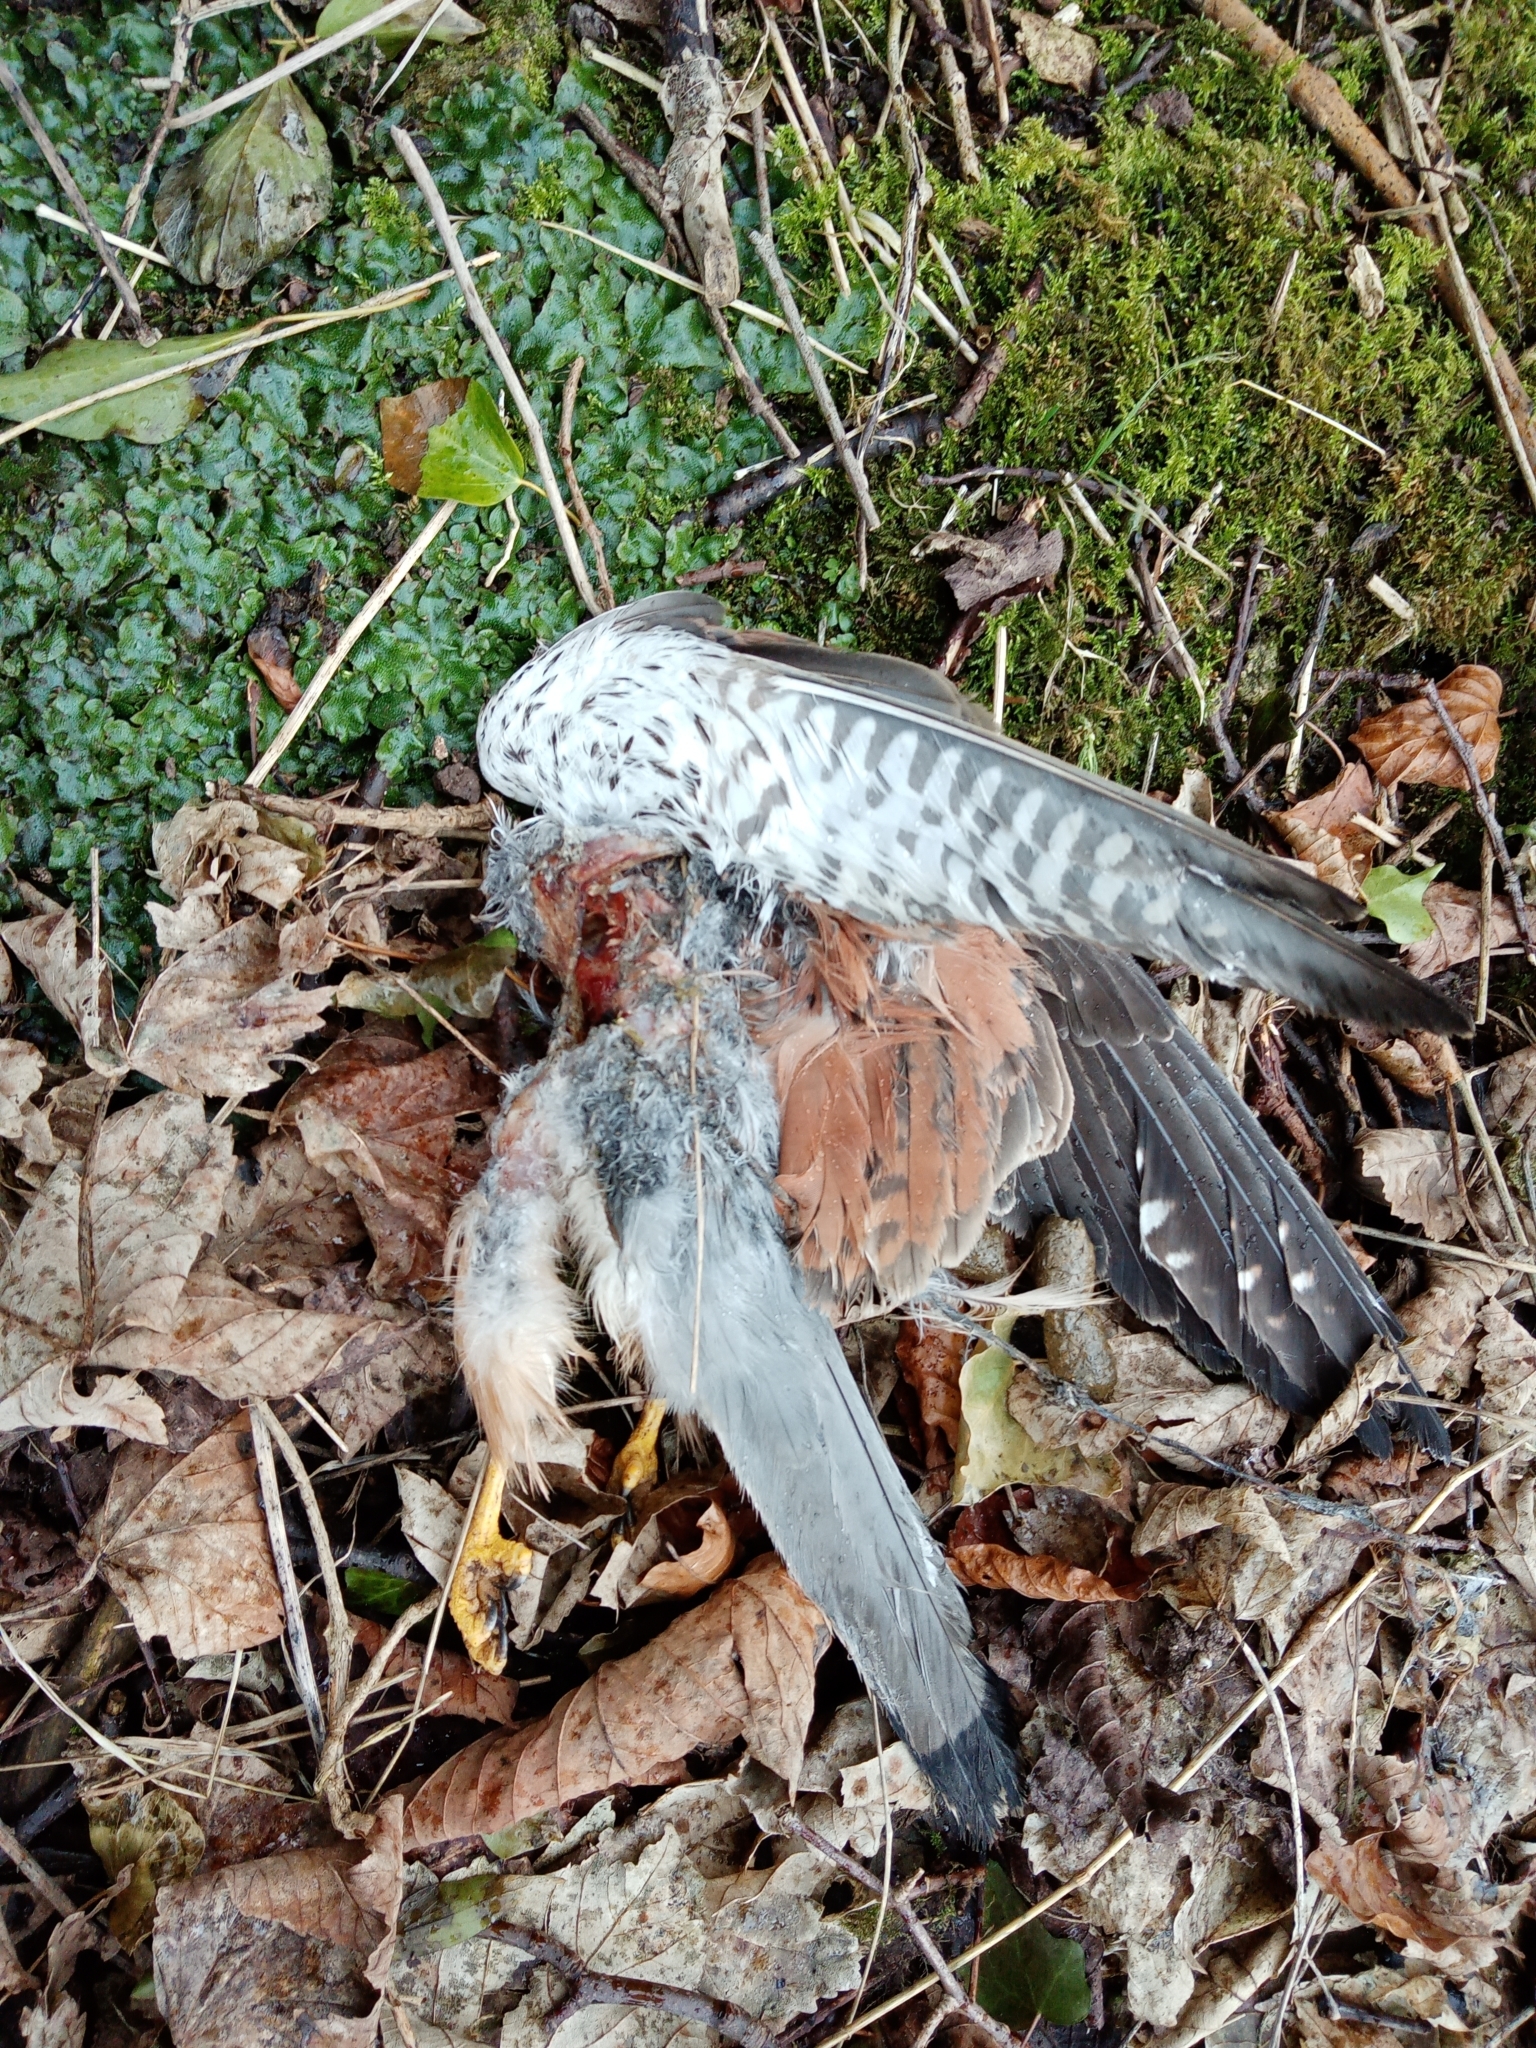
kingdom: Animalia
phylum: Chordata
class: Aves
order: Falconiformes
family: Falconidae
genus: Falco
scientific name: Falco tinnunculus
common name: Common kestrel
